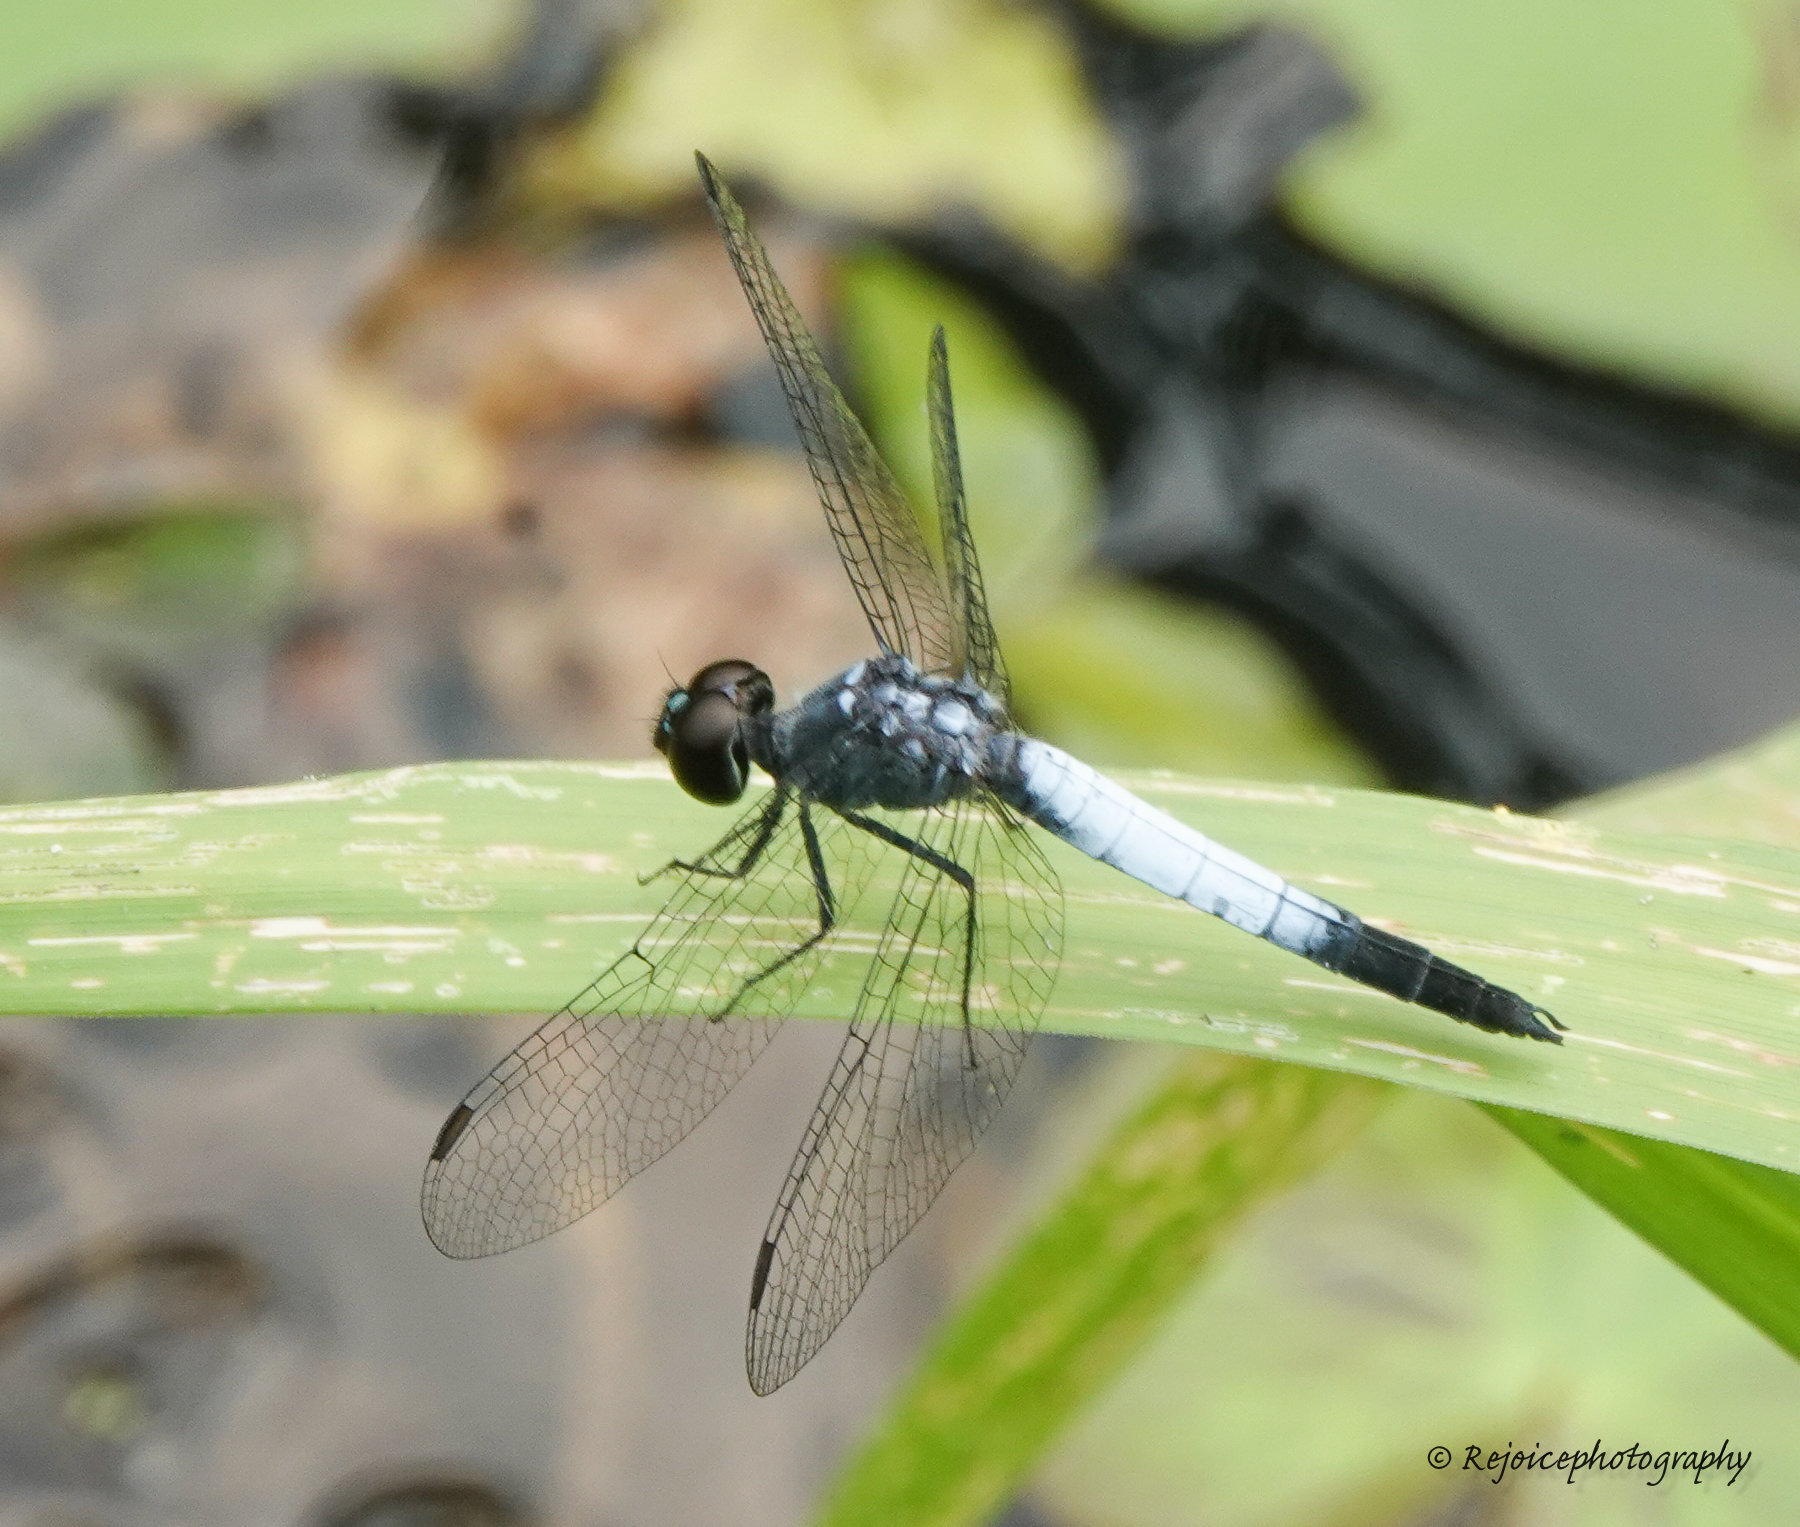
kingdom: Animalia
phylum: Arthropoda
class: Insecta
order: Odonata
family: Libellulidae
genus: Brachydiplax
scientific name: Brachydiplax farinosa
